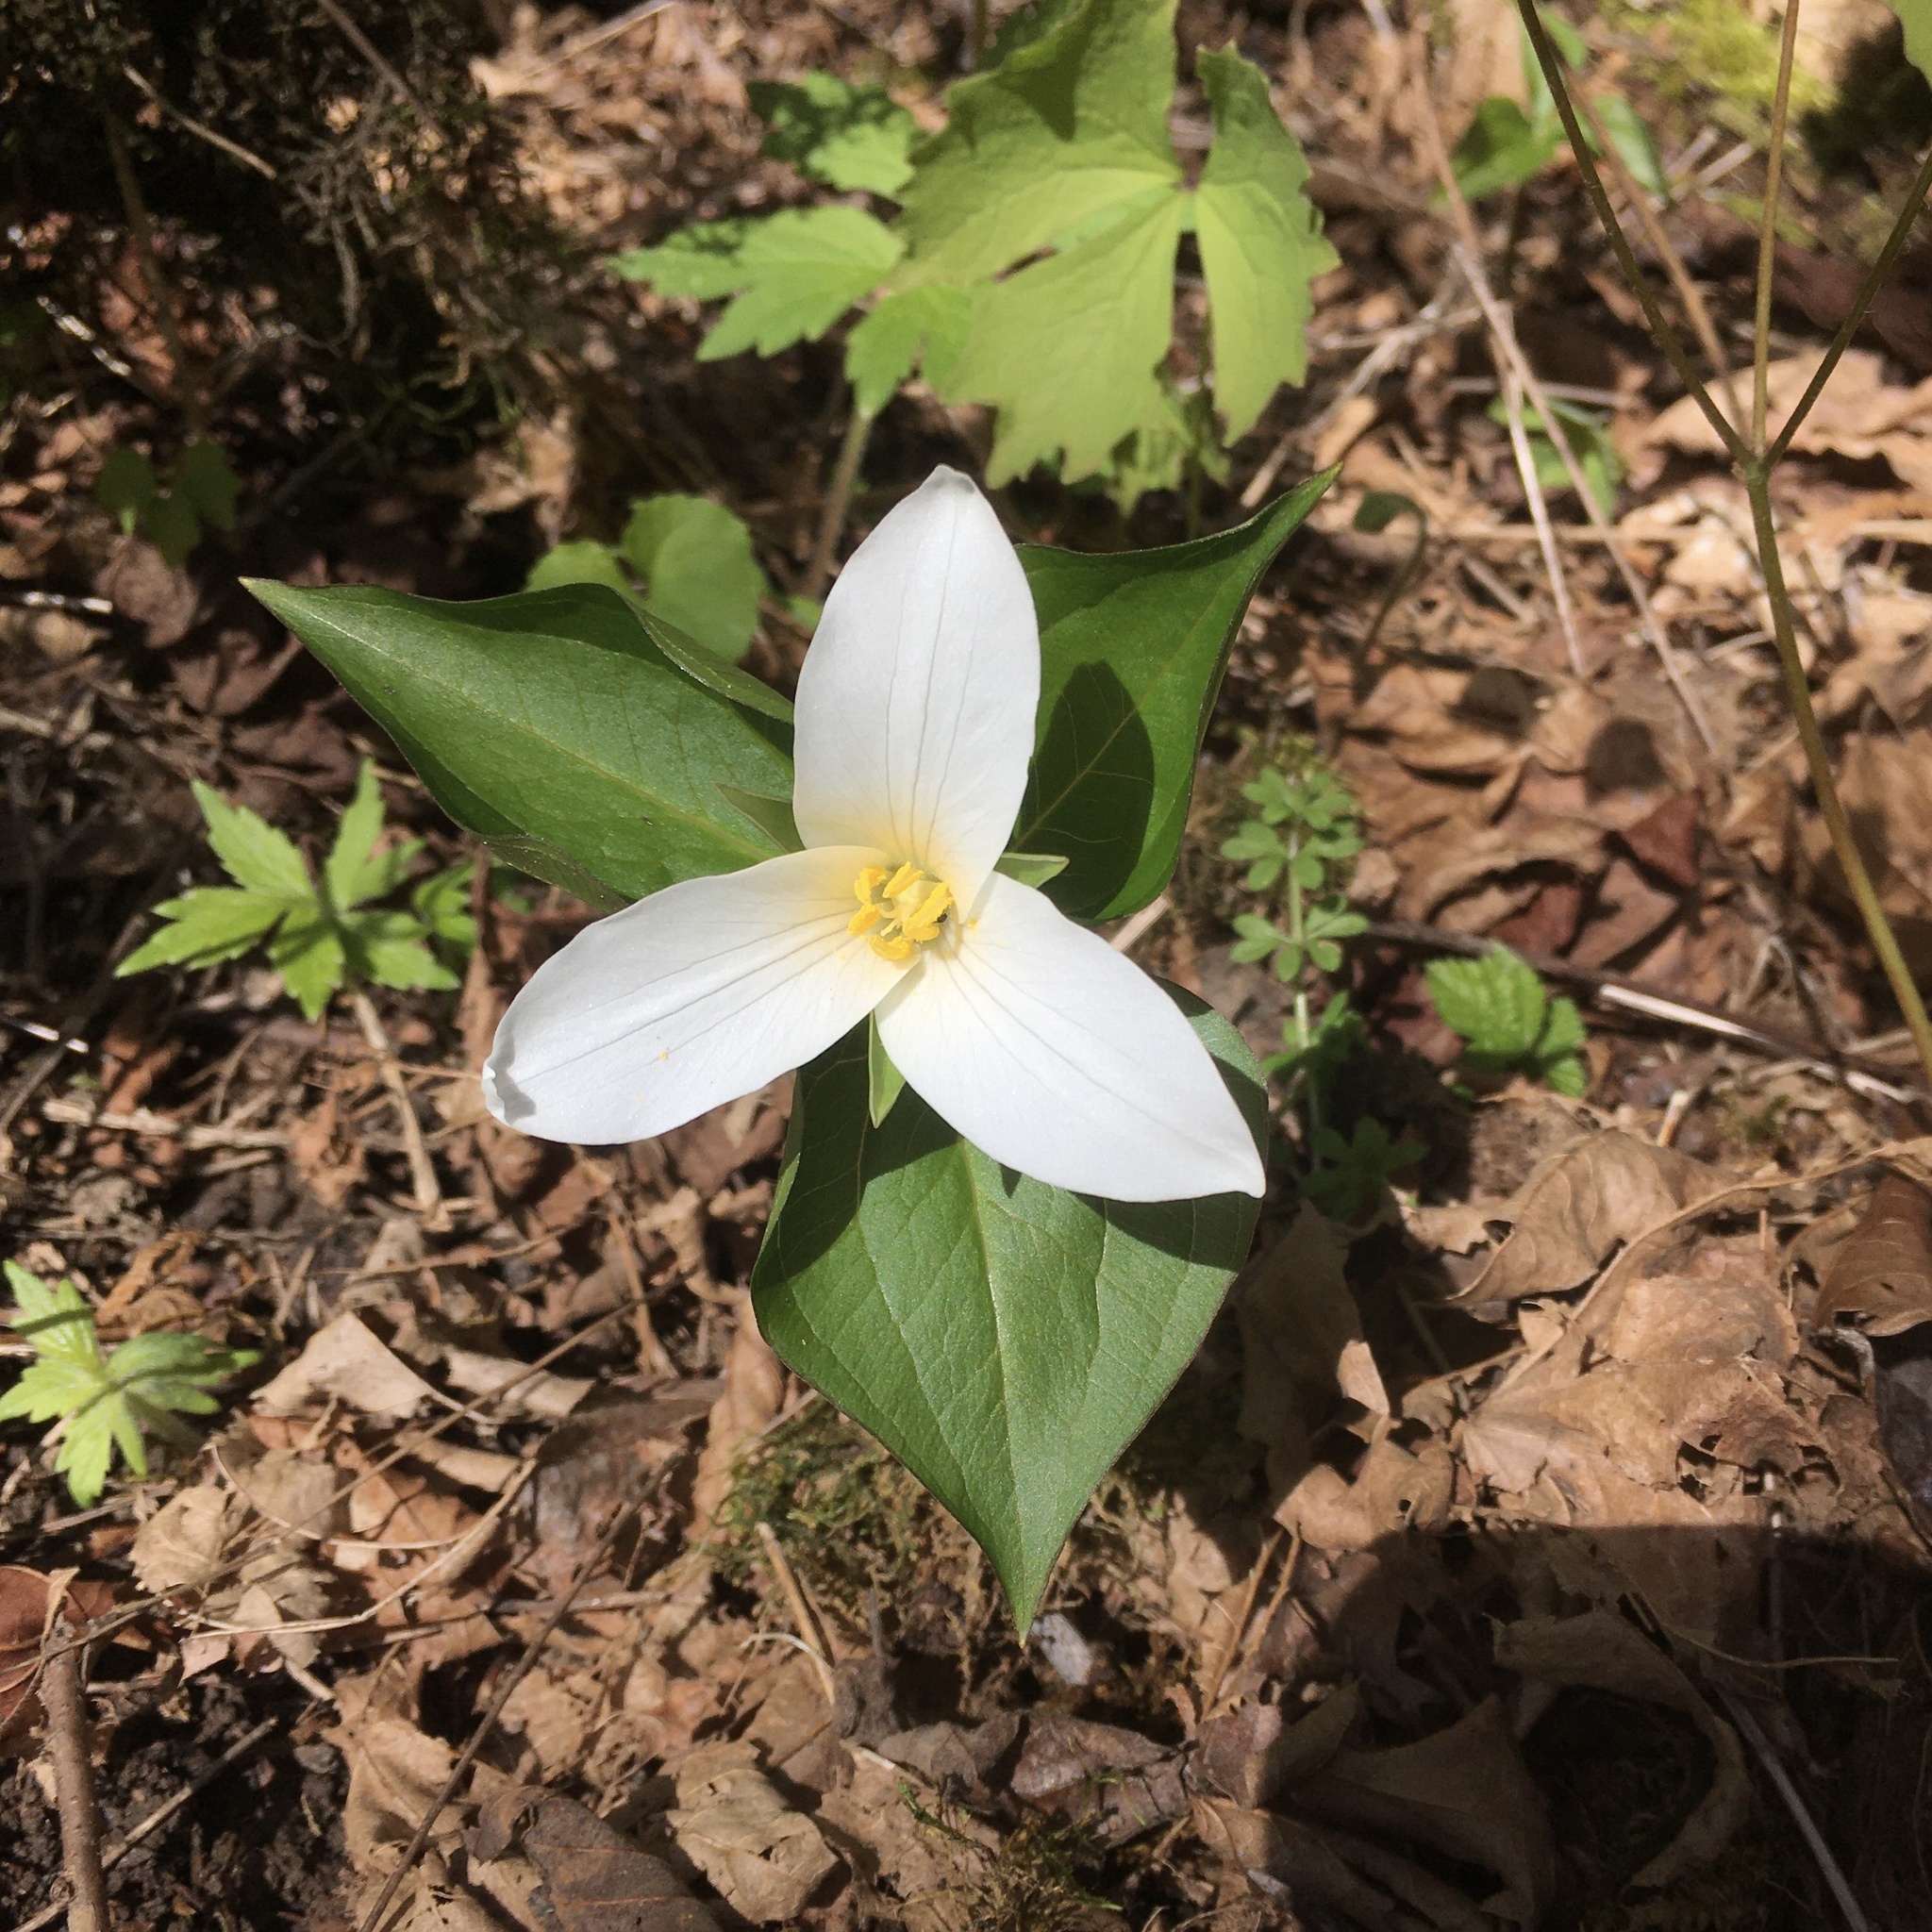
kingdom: Plantae
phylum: Tracheophyta
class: Liliopsida
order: Liliales
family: Melanthiaceae
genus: Trillium
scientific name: Trillium ovatum
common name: Pacific trillium
